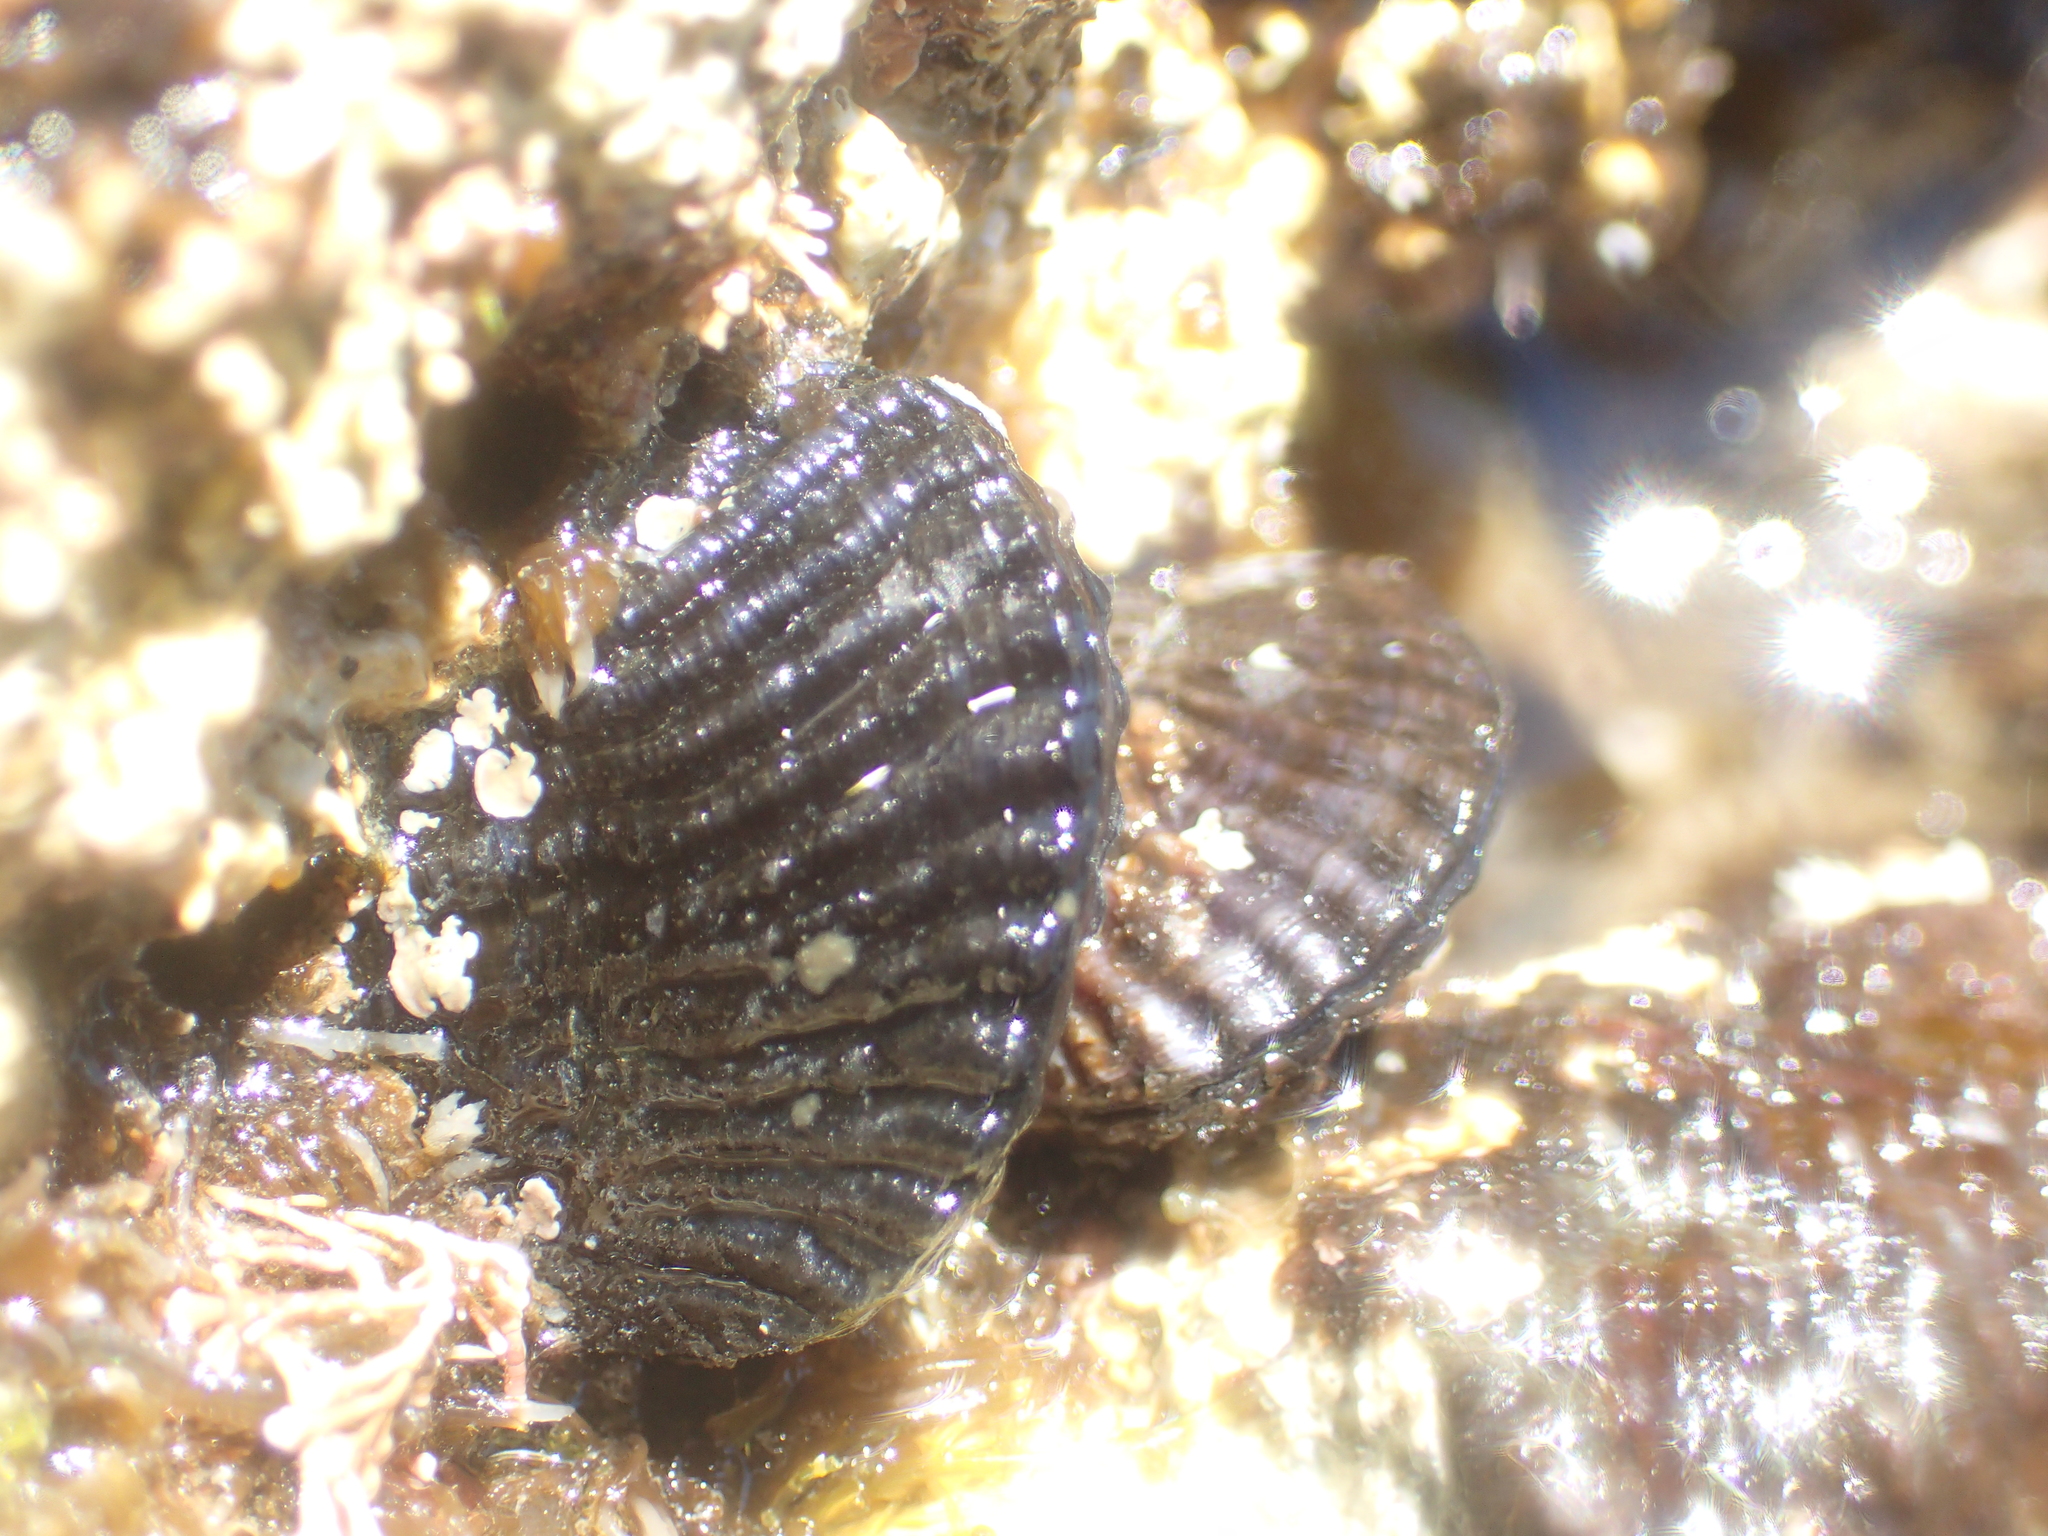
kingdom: Animalia
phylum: Mollusca
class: Bivalvia
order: Mytilida
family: Mytilidae
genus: Aulacomya
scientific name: Aulacomya maoriana
